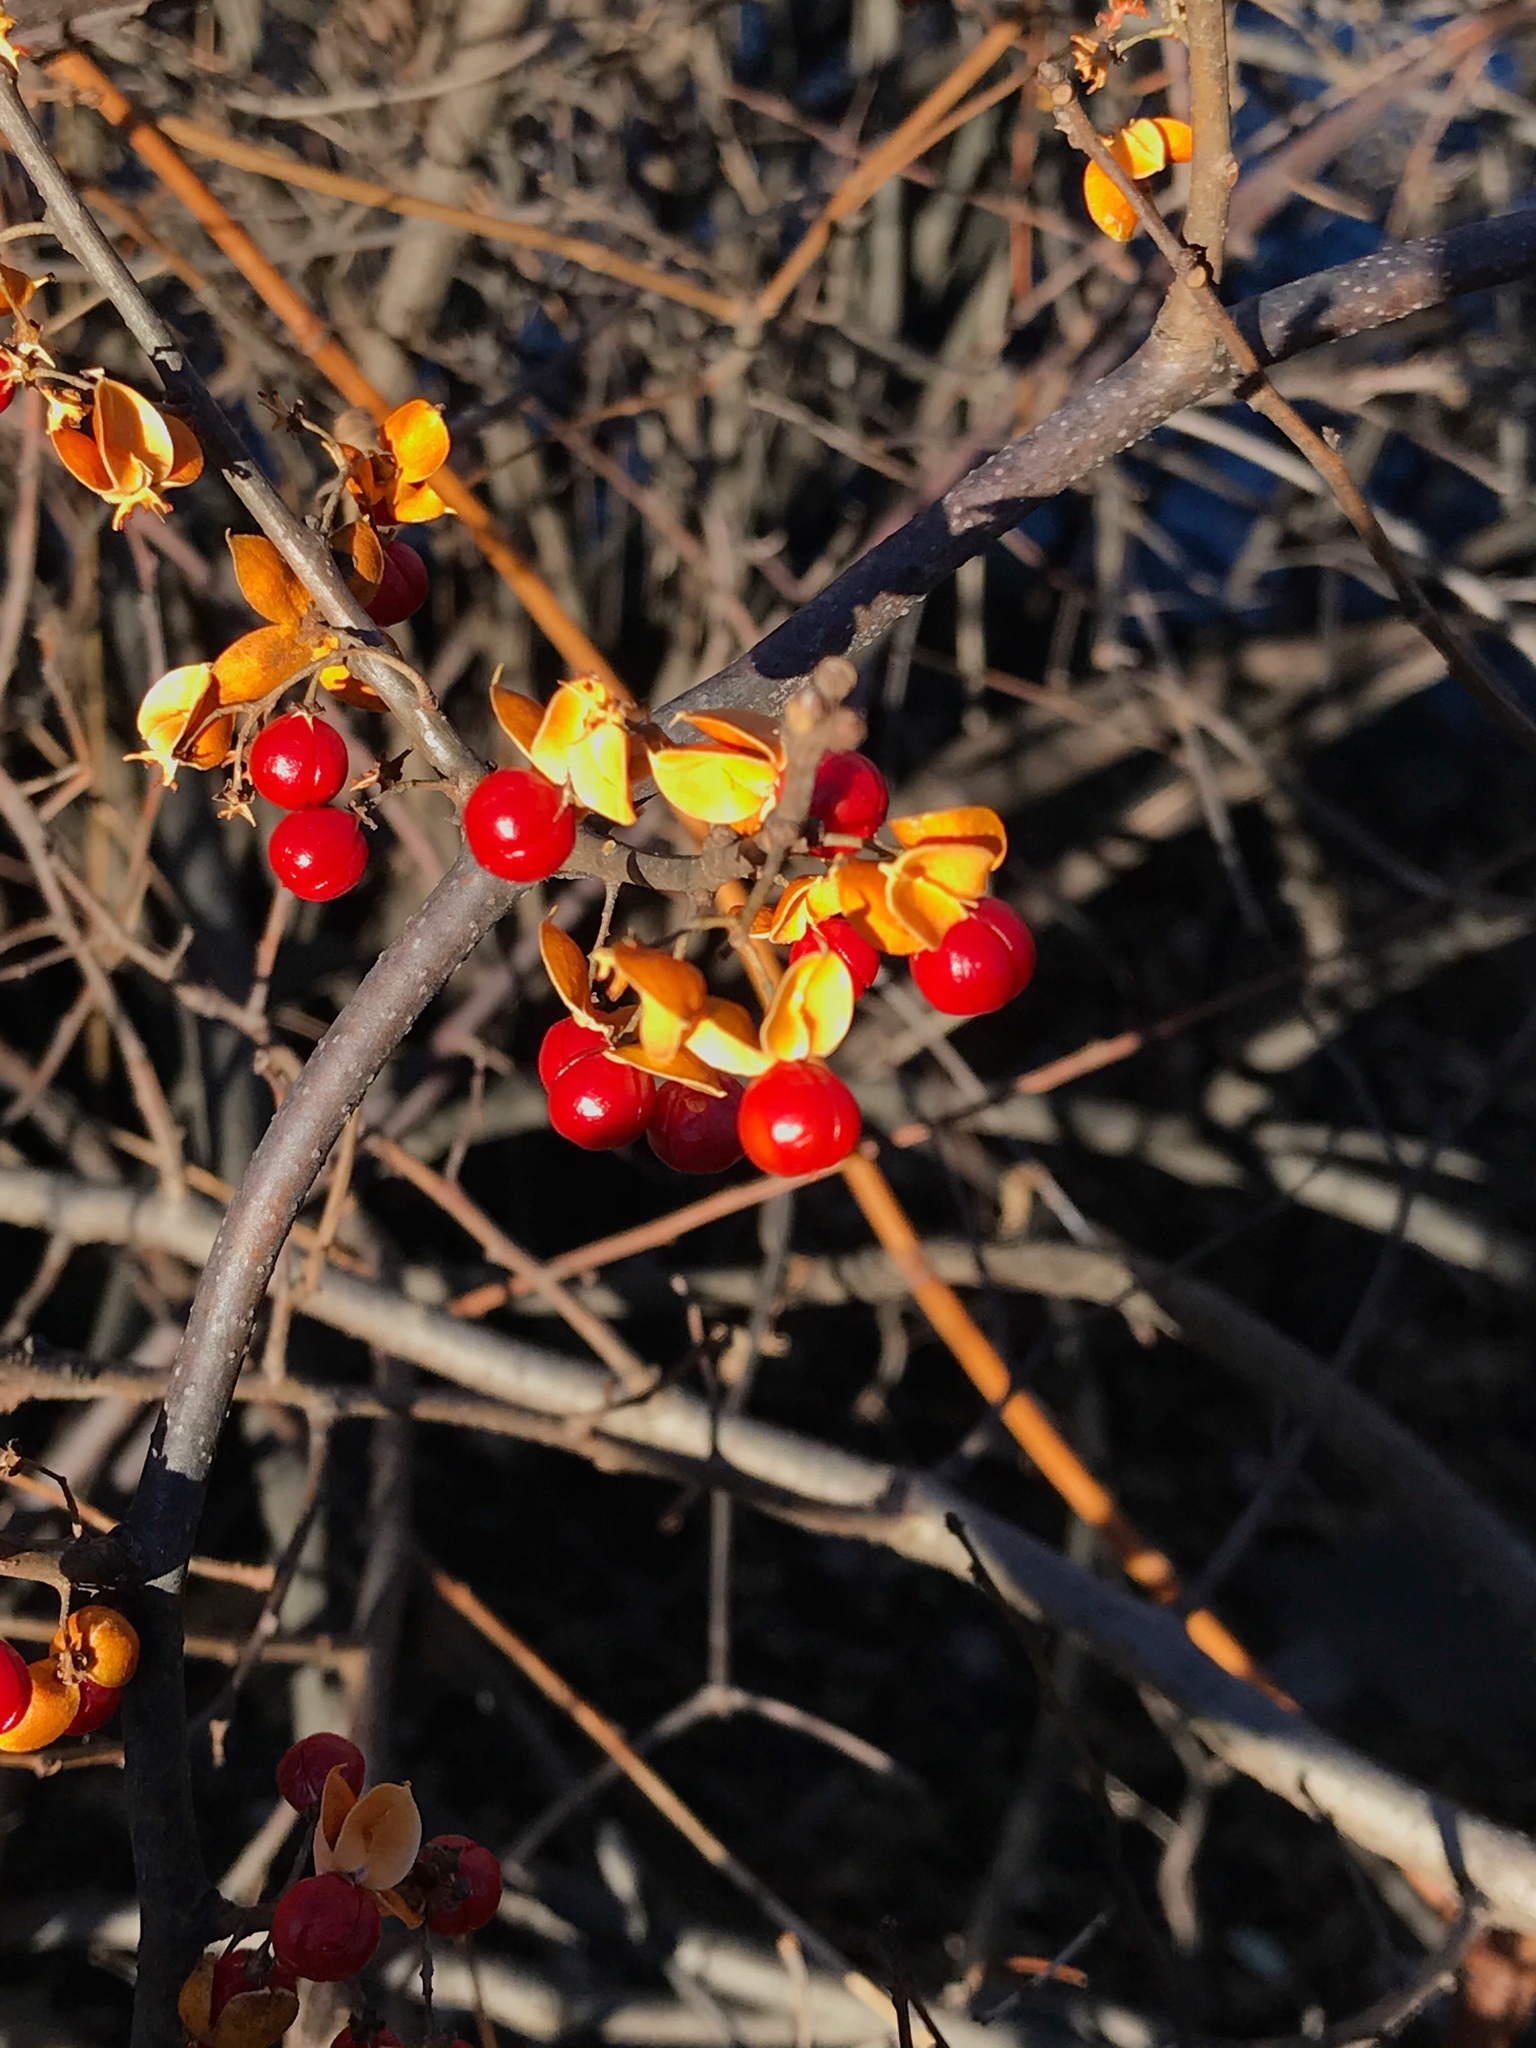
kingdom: Plantae
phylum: Tracheophyta
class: Magnoliopsida
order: Celastrales
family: Celastraceae
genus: Celastrus
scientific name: Celastrus orbiculatus
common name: Oriental bittersweet
